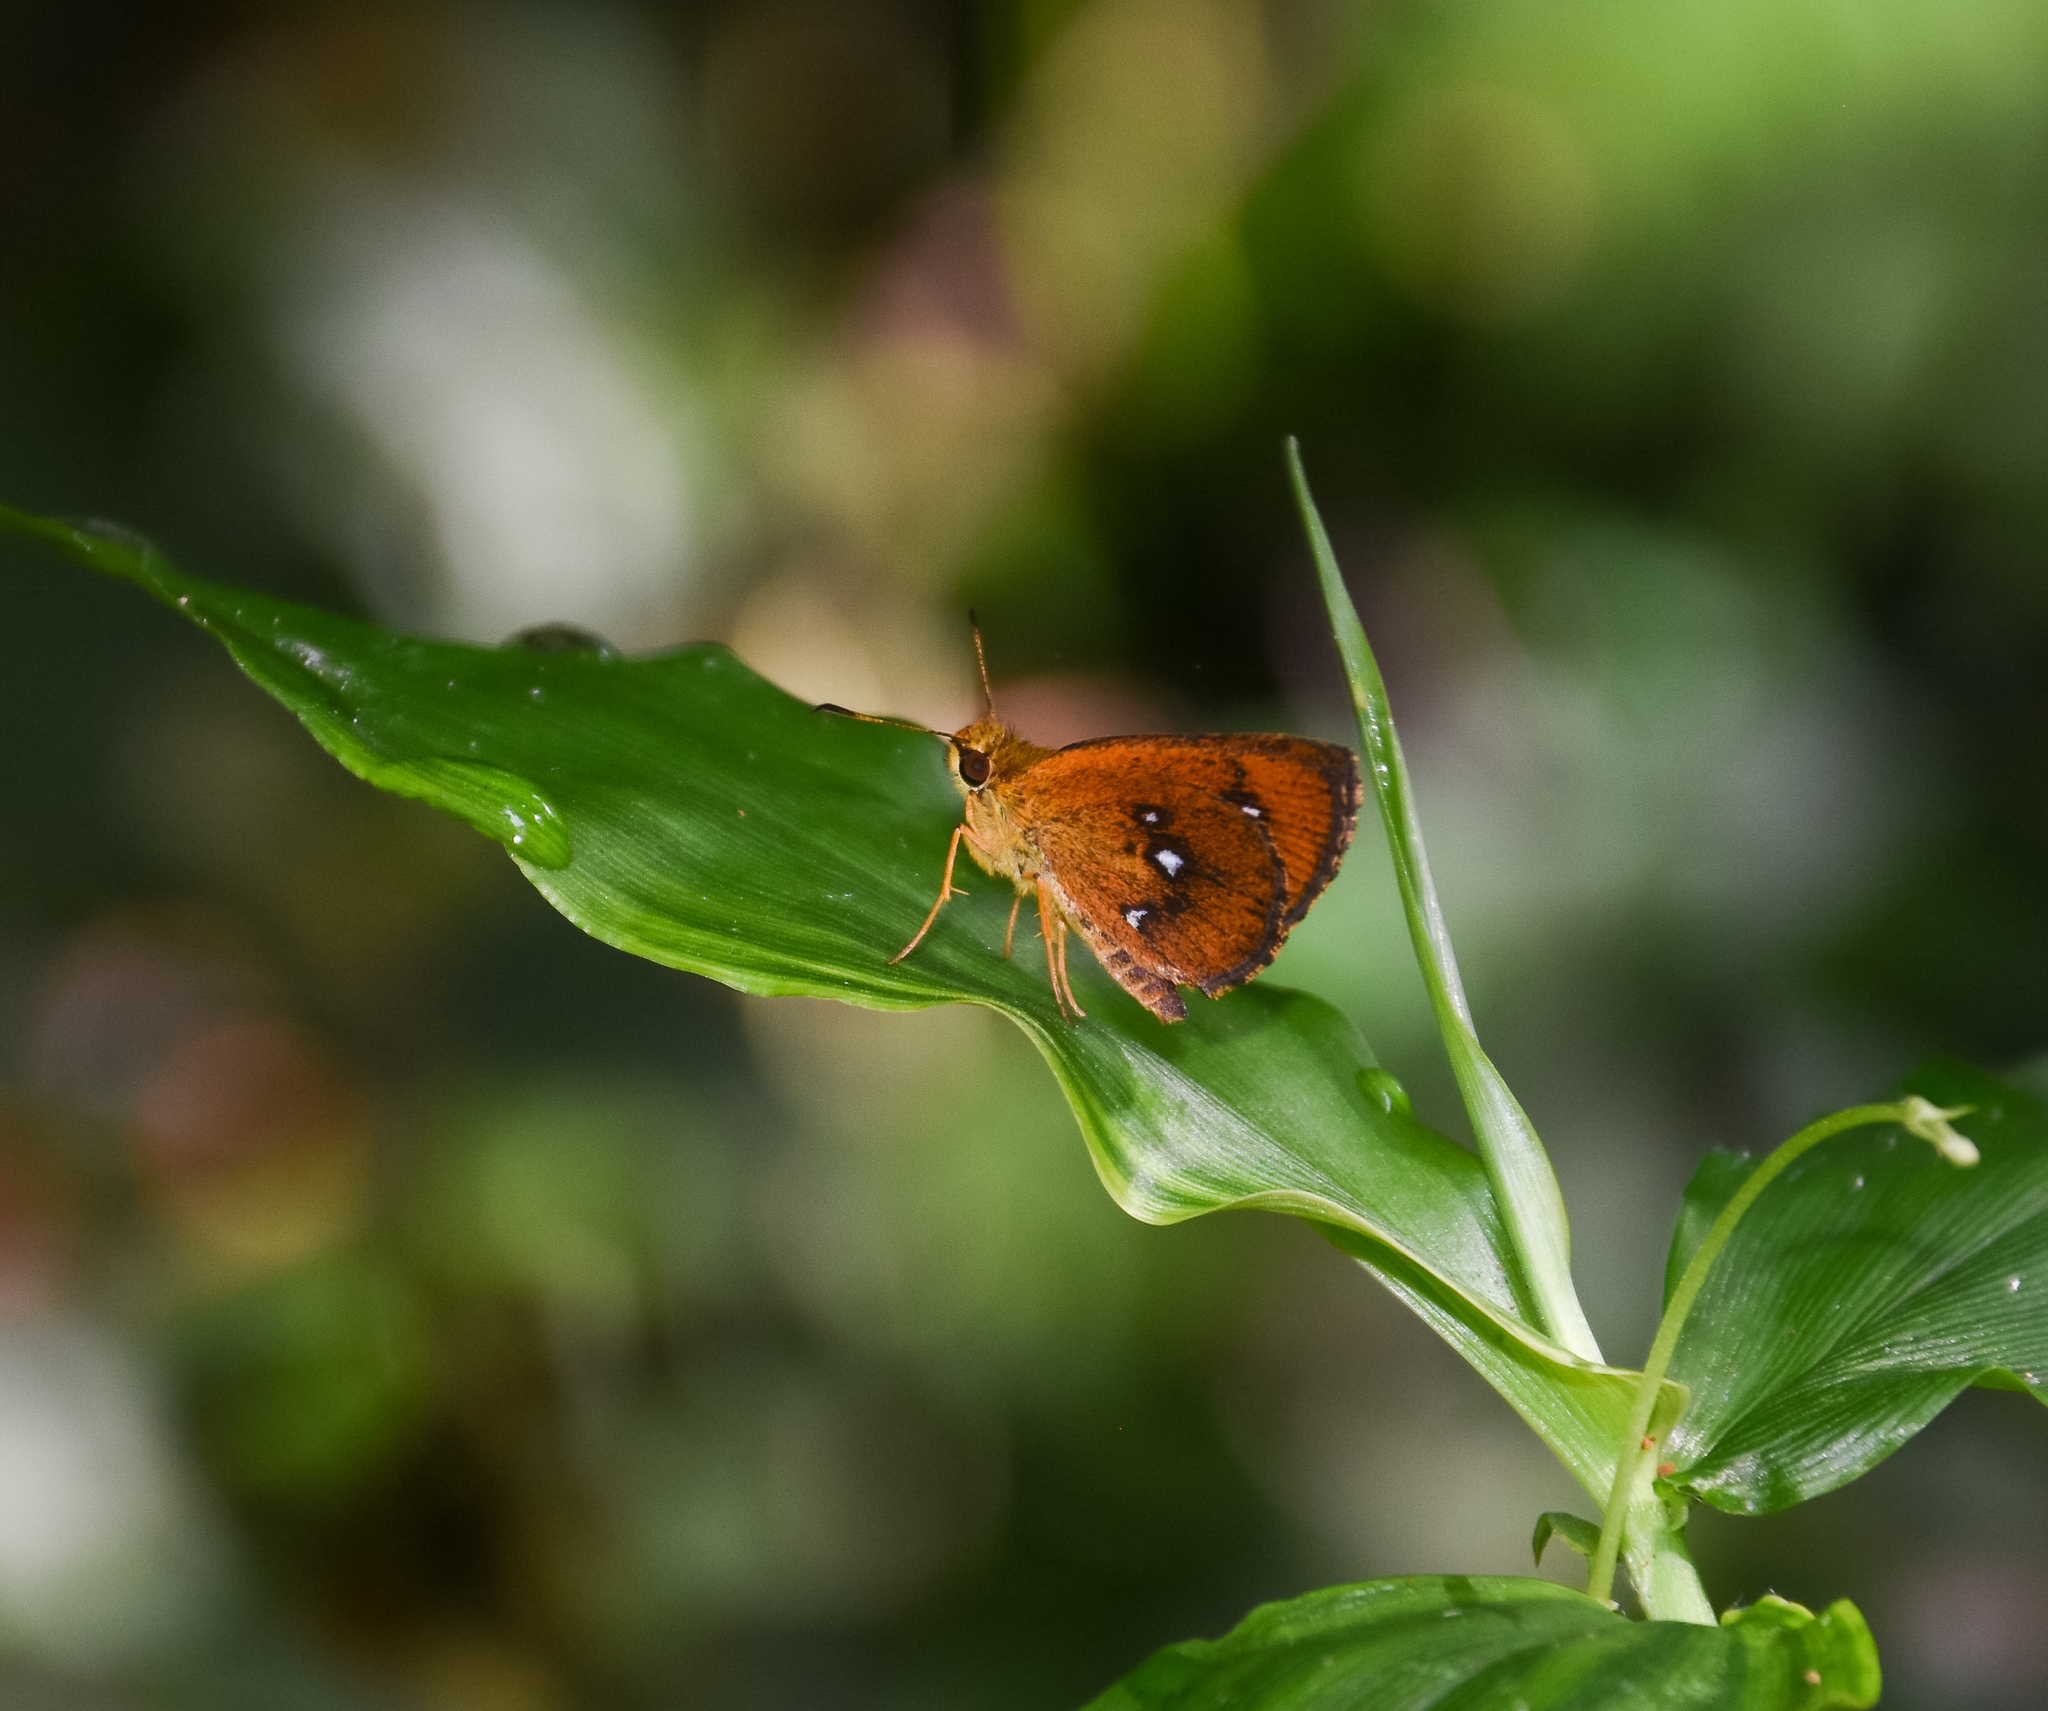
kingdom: Animalia
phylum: Arthropoda
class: Insecta
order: Lepidoptera
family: Hesperiidae
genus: Iambrix
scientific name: Iambrix salsala
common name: Chestnut bob
